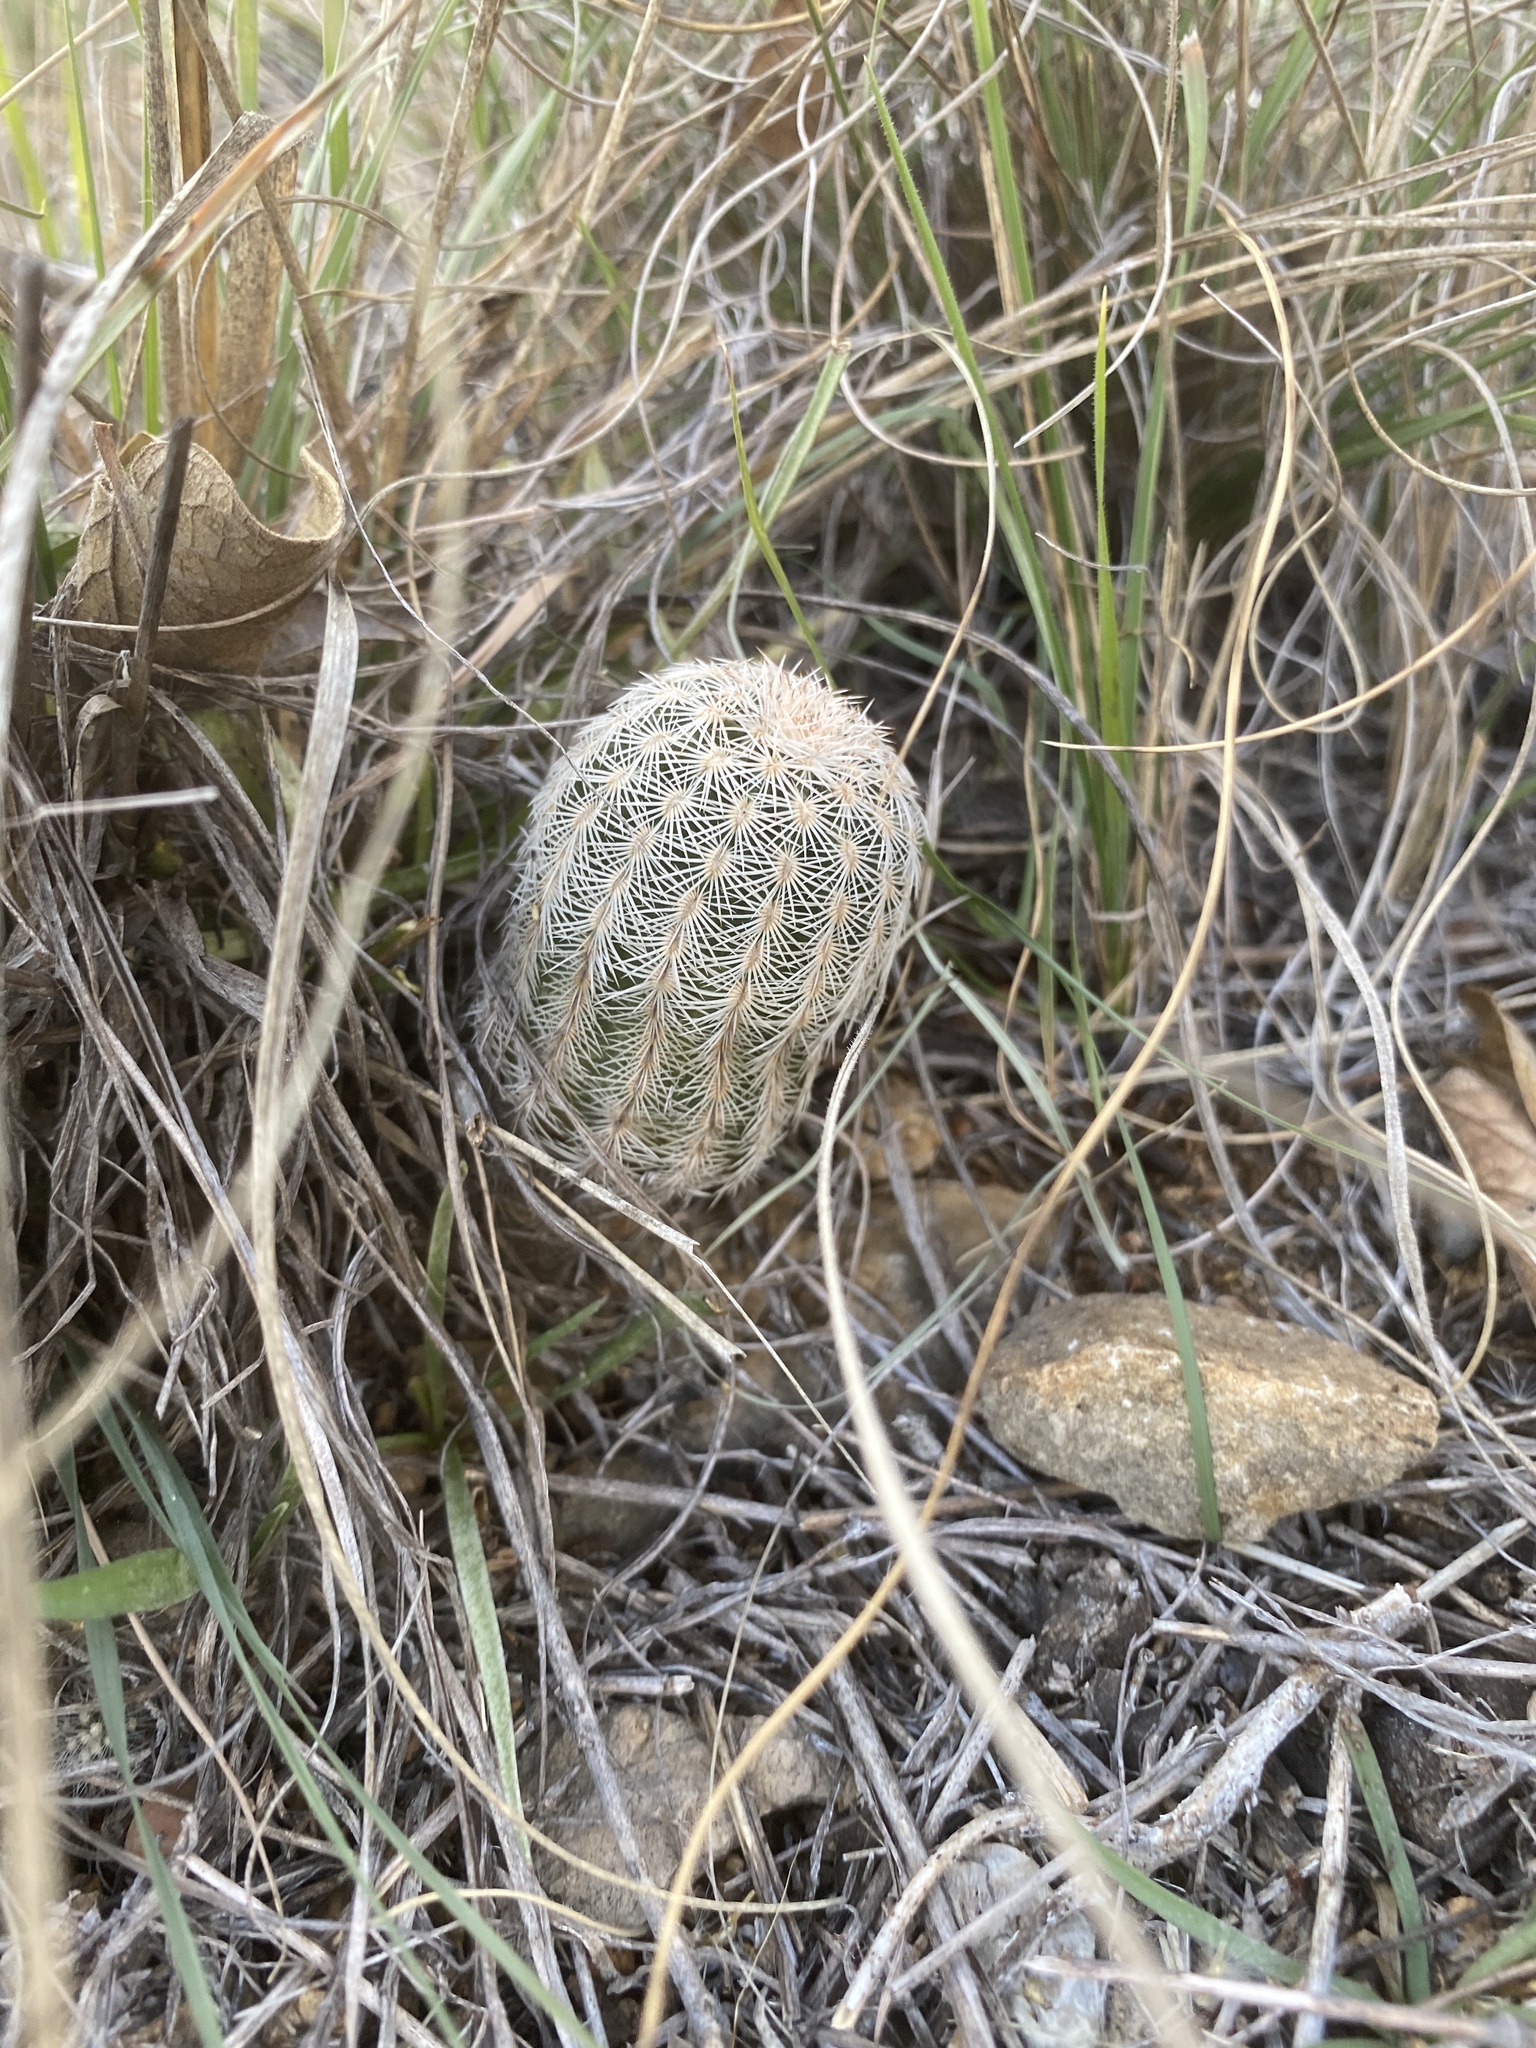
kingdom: Plantae
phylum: Tracheophyta
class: Magnoliopsida
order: Caryophyllales
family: Cactaceae
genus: Echinocereus
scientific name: Echinocereus reichenbachii
